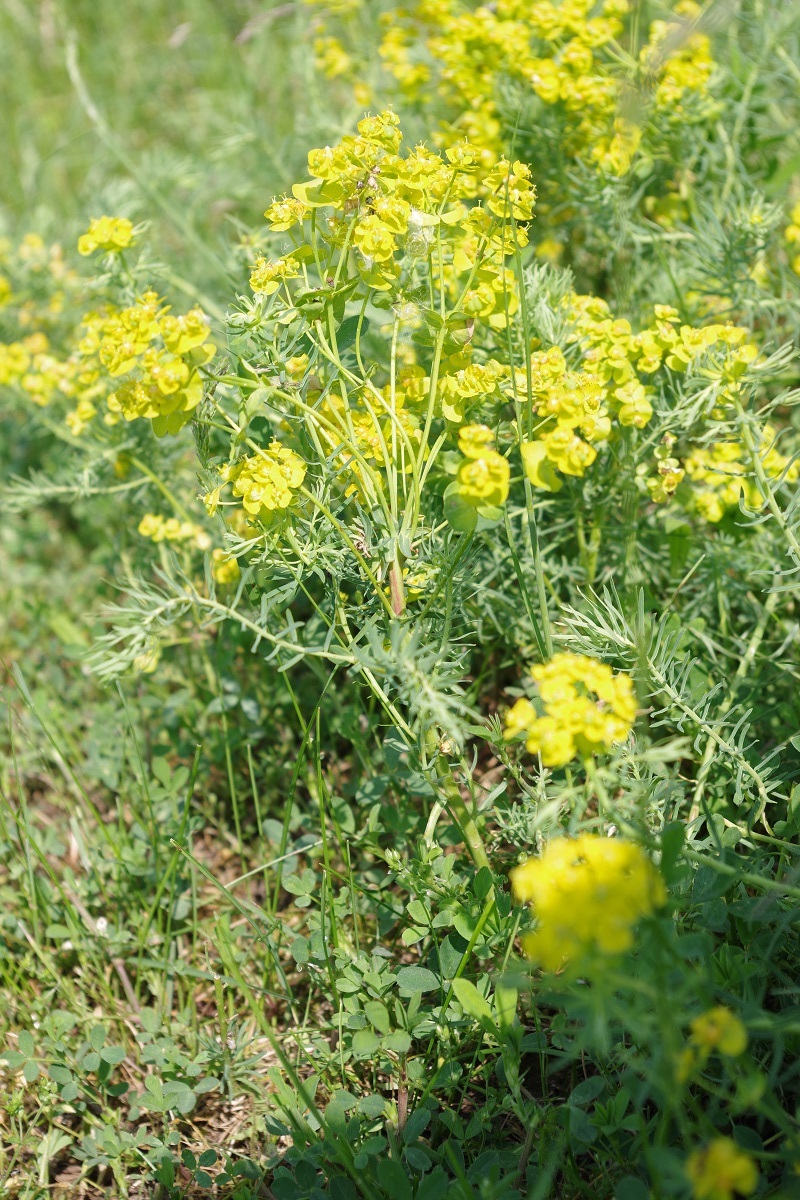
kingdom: Plantae
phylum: Tracheophyta
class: Magnoliopsida
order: Malpighiales
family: Euphorbiaceae
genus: Euphorbia
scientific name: Euphorbia cyparissias
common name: Cypress spurge
